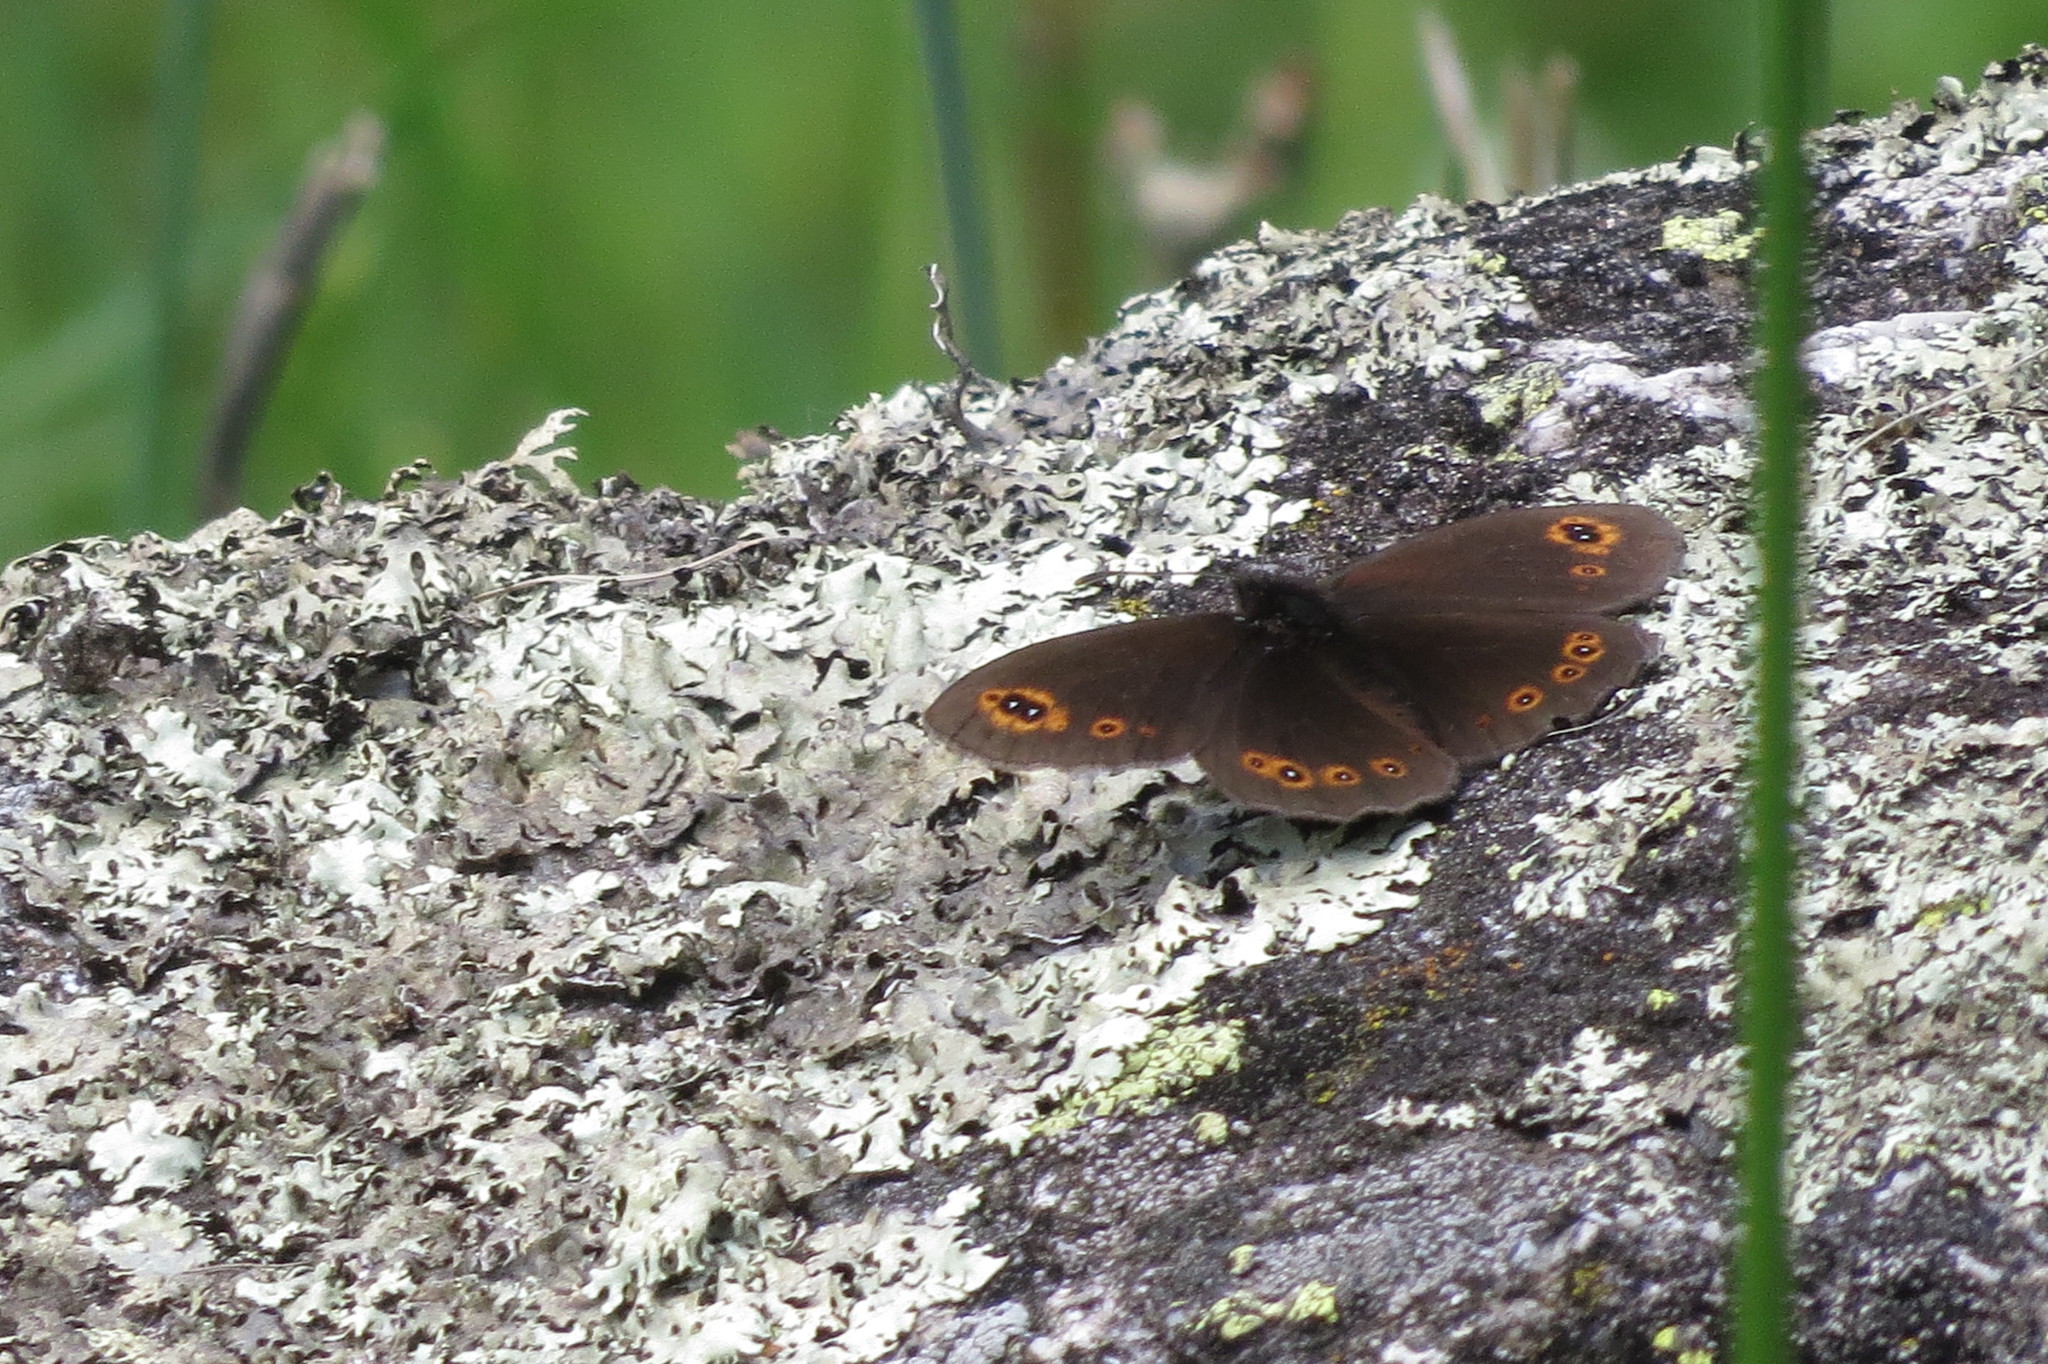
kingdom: Animalia
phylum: Arthropoda
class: Insecta
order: Lepidoptera
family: Nymphalidae
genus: Erebia
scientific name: Erebia medusa
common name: Woodland ringlet
